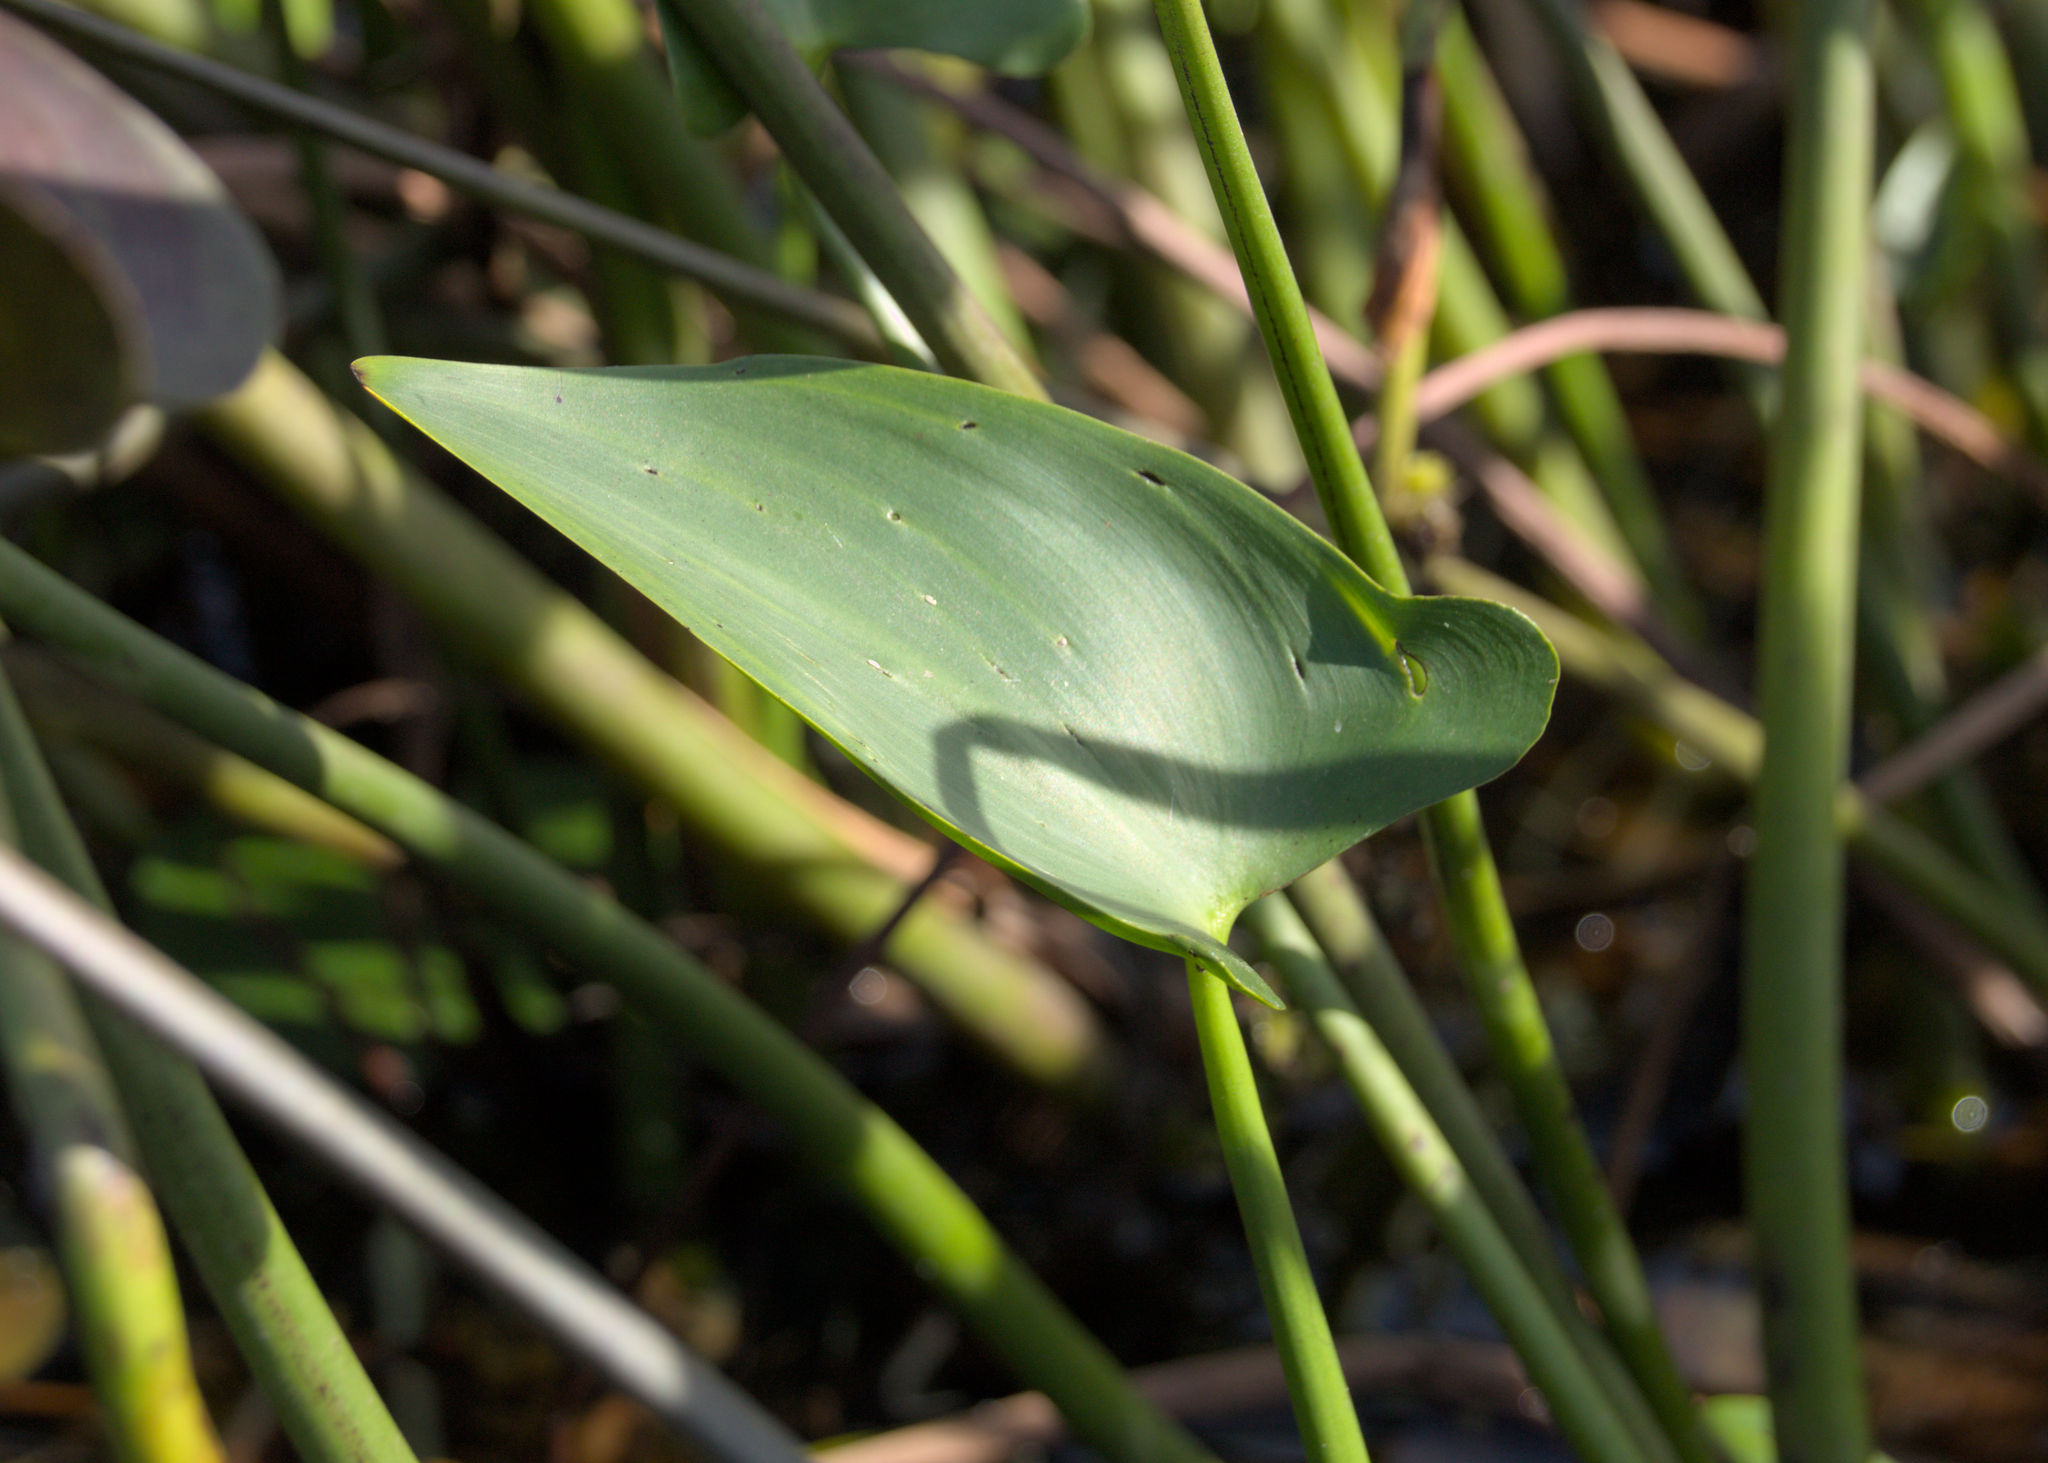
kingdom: Plantae
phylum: Tracheophyta
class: Liliopsida
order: Commelinales
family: Pontederiaceae
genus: Pontederia
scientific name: Pontederia cordata
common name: Pickerelweed
